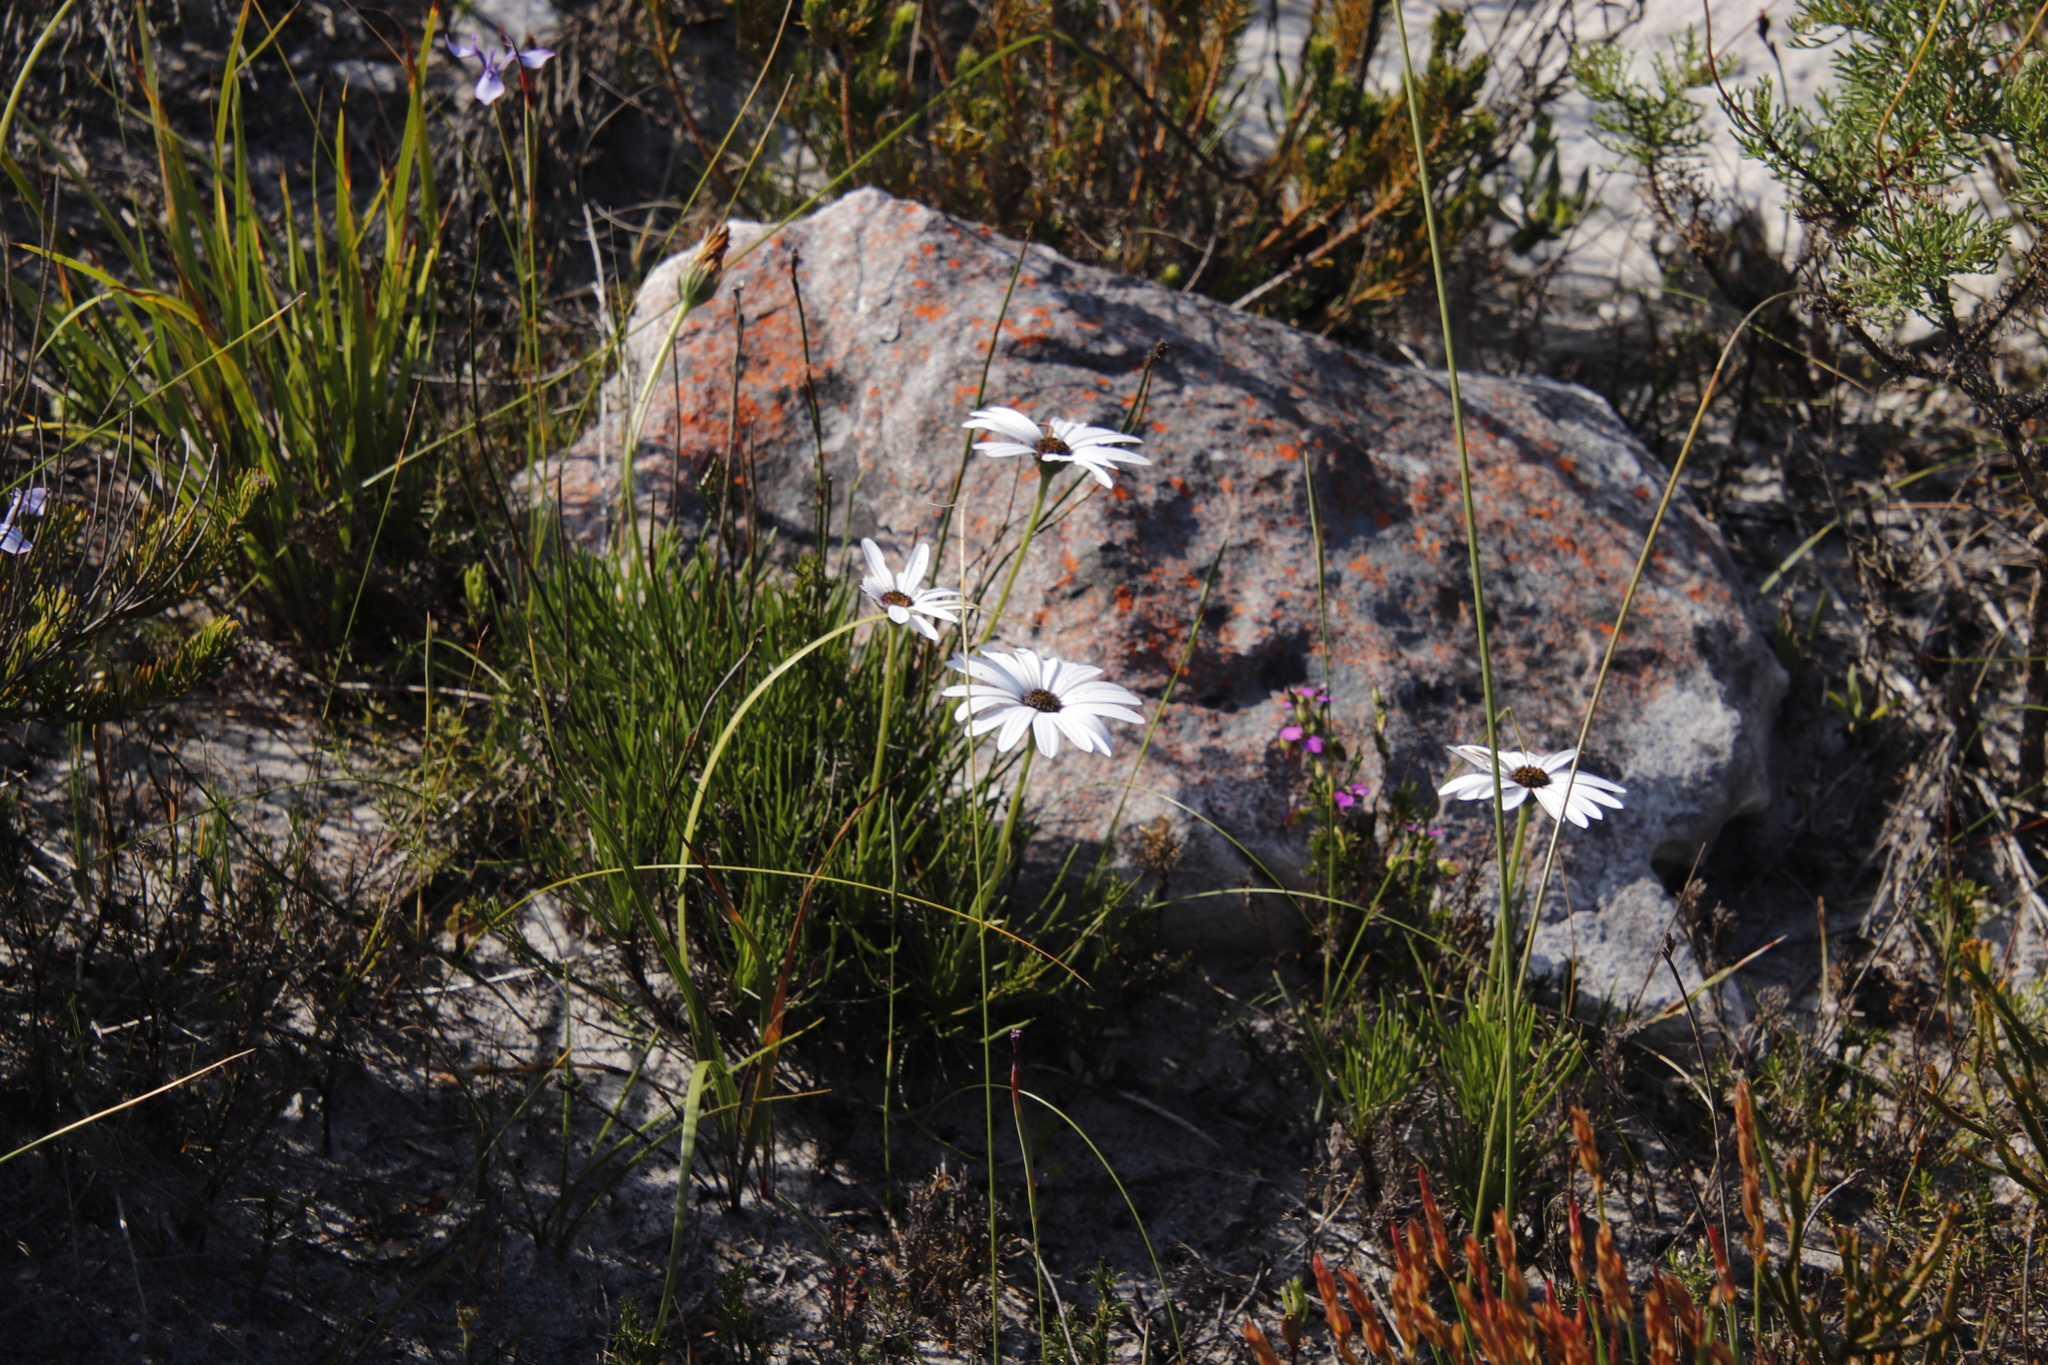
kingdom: Plantae
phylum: Tracheophyta
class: Magnoliopsida
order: Asterales
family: Asteraceae
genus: Dimorphotheca
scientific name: Dimorphotheca nudicaulis
